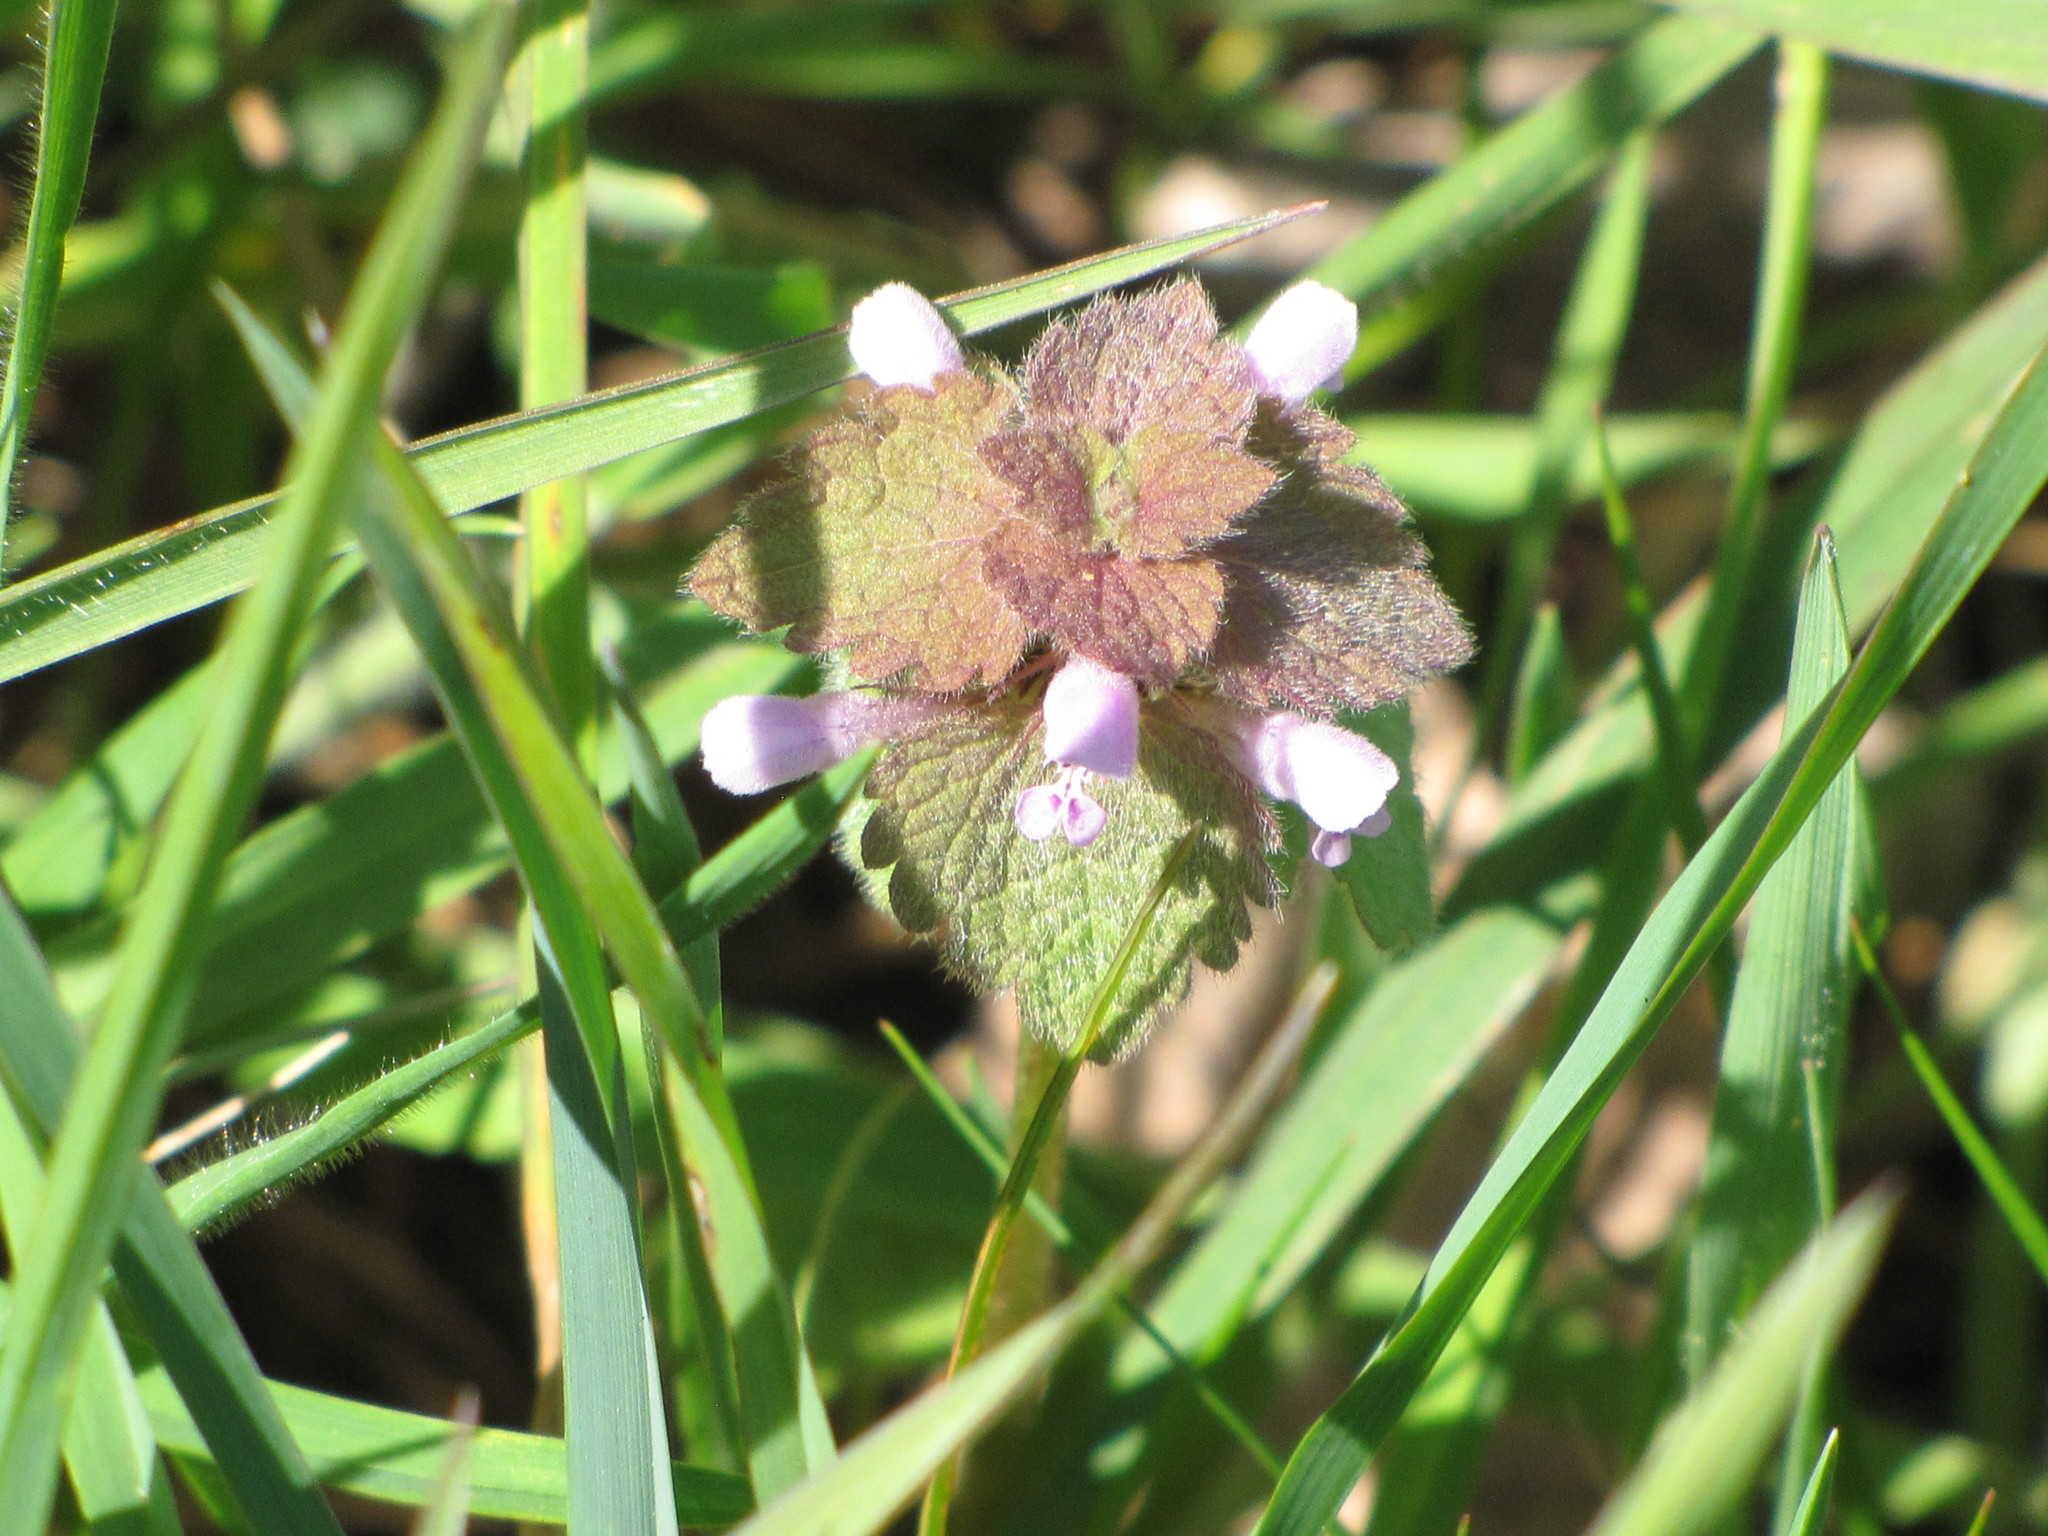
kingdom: Plantae
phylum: Tracheophyta
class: Magnoliopsida
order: Lamiales
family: Lamiaceae
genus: Lamium
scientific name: Lamium purpureum
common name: Red dead-nettle
